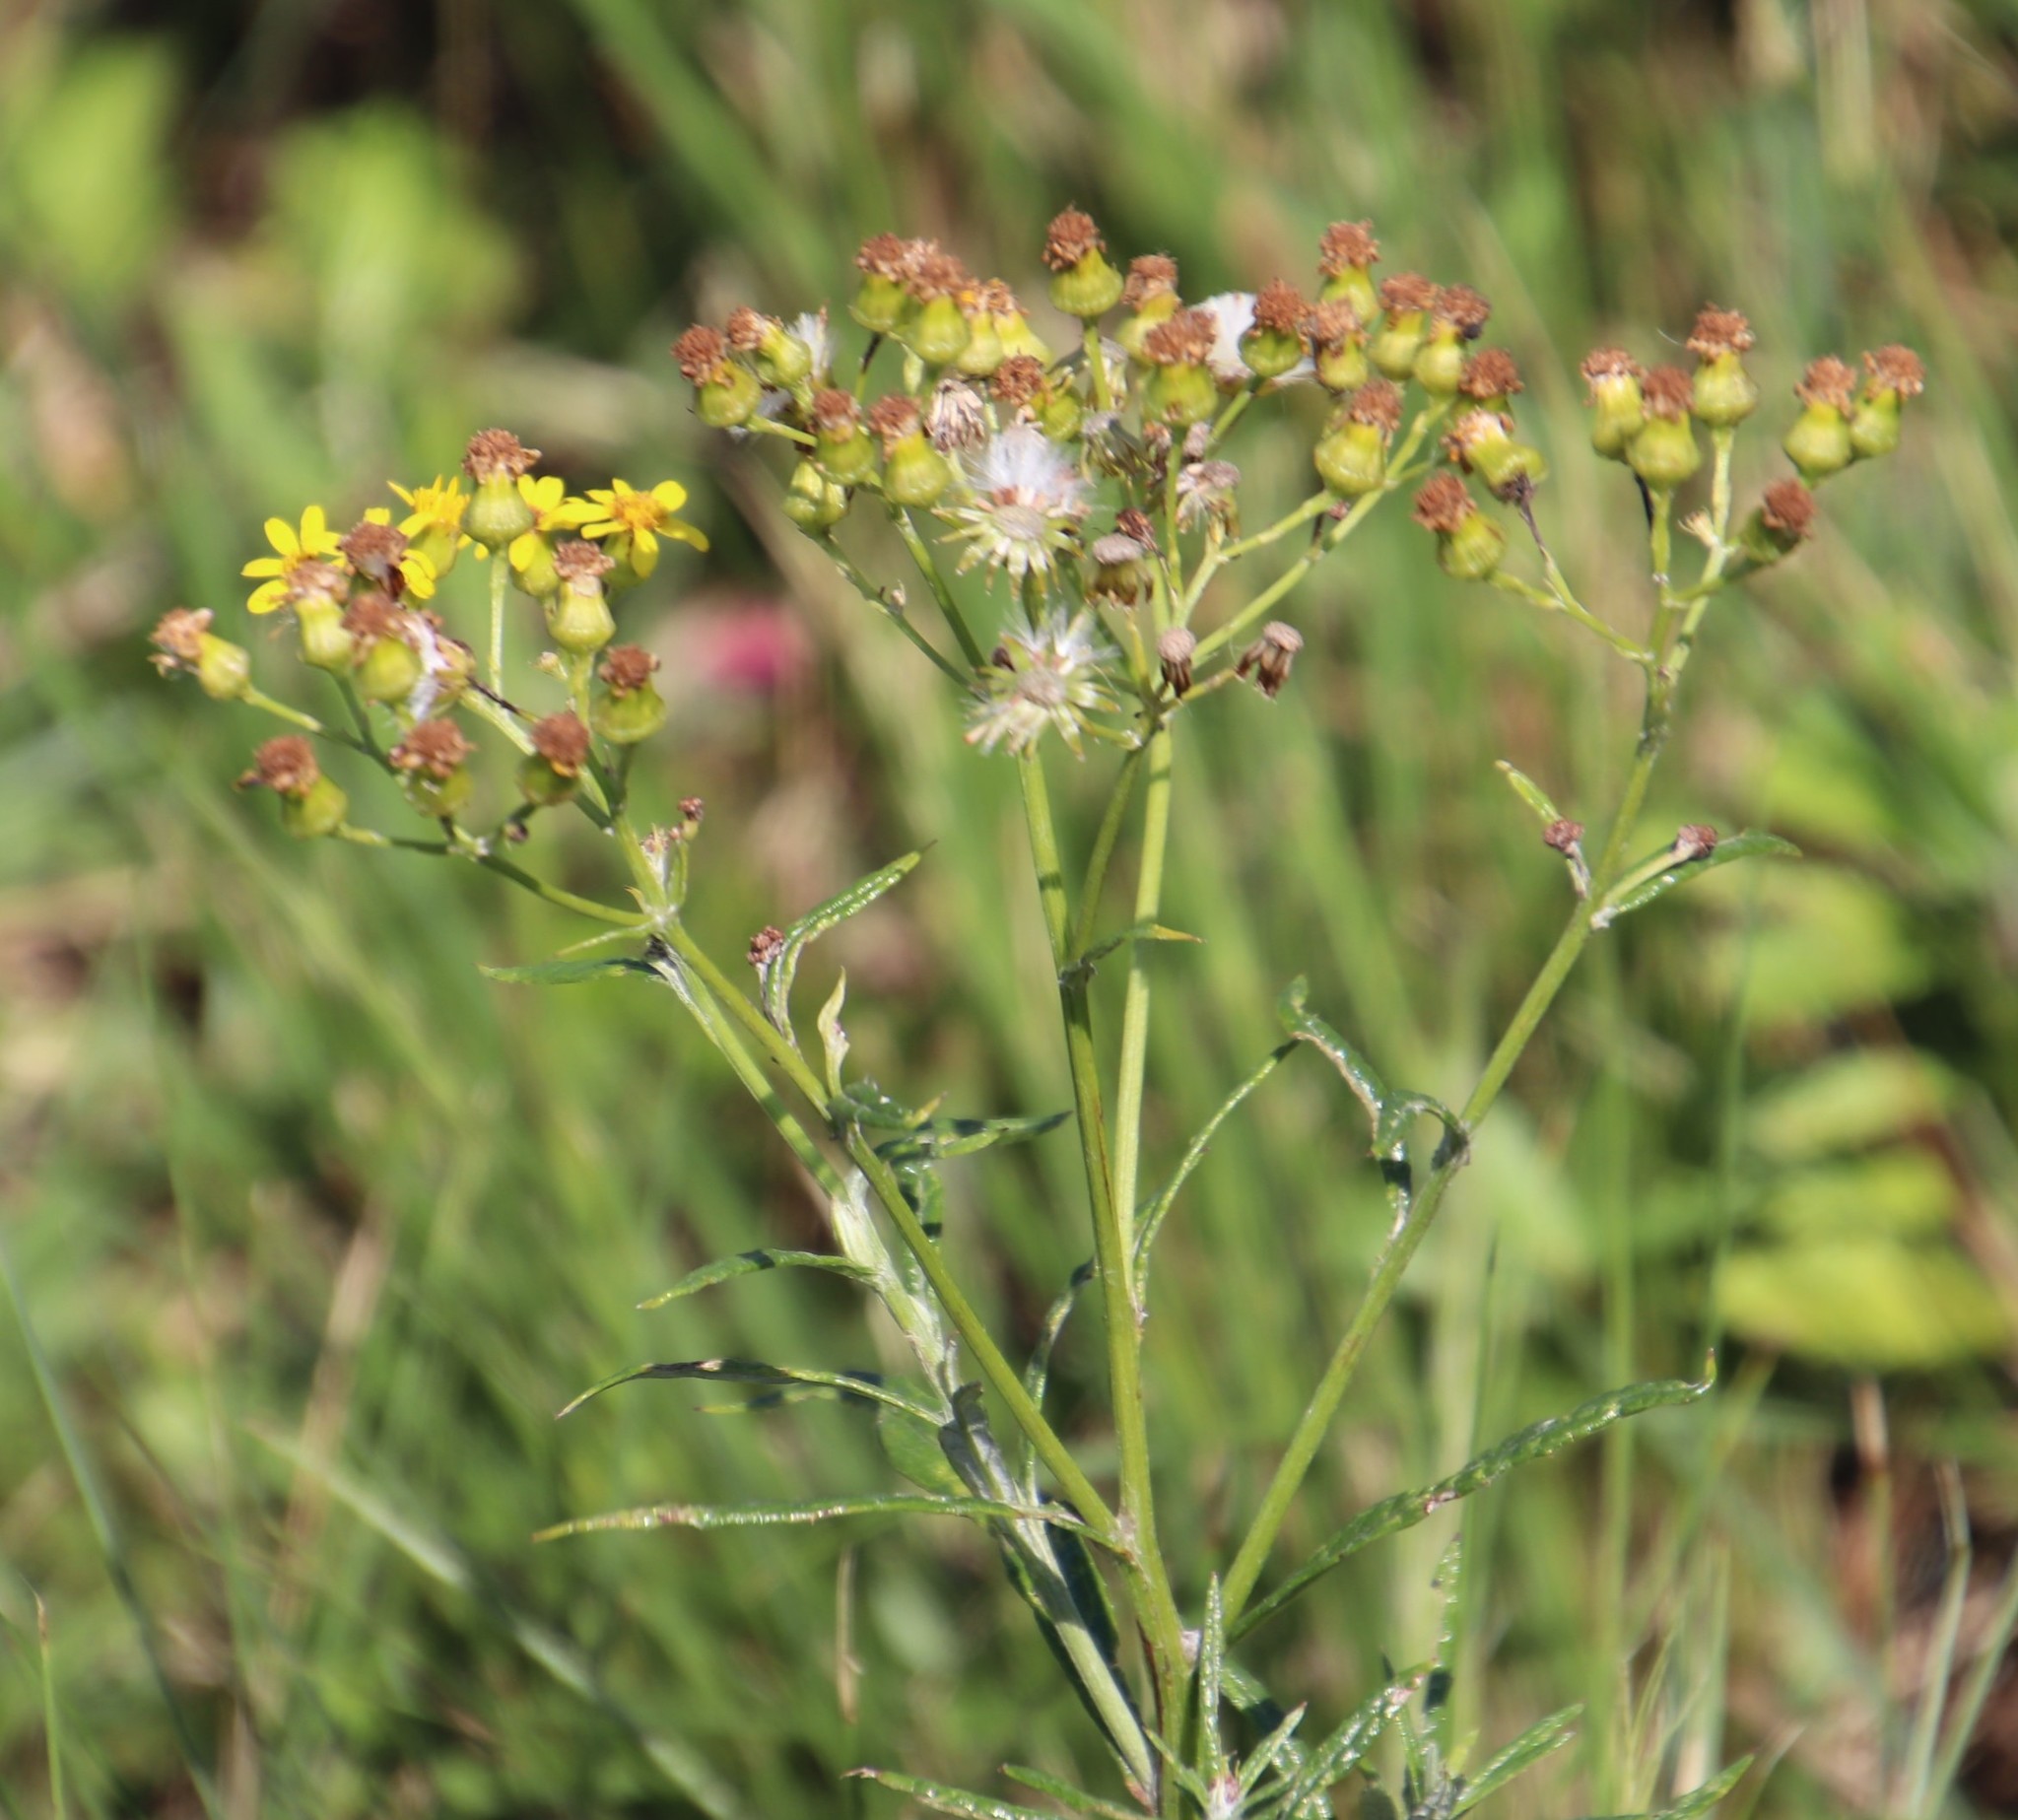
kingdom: Plantae
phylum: Tracheophyta
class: Magnoliopsida
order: Asterales
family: Asteraceae
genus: Senecio
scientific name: Senecio pterophorus
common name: Shoddy ragwort
